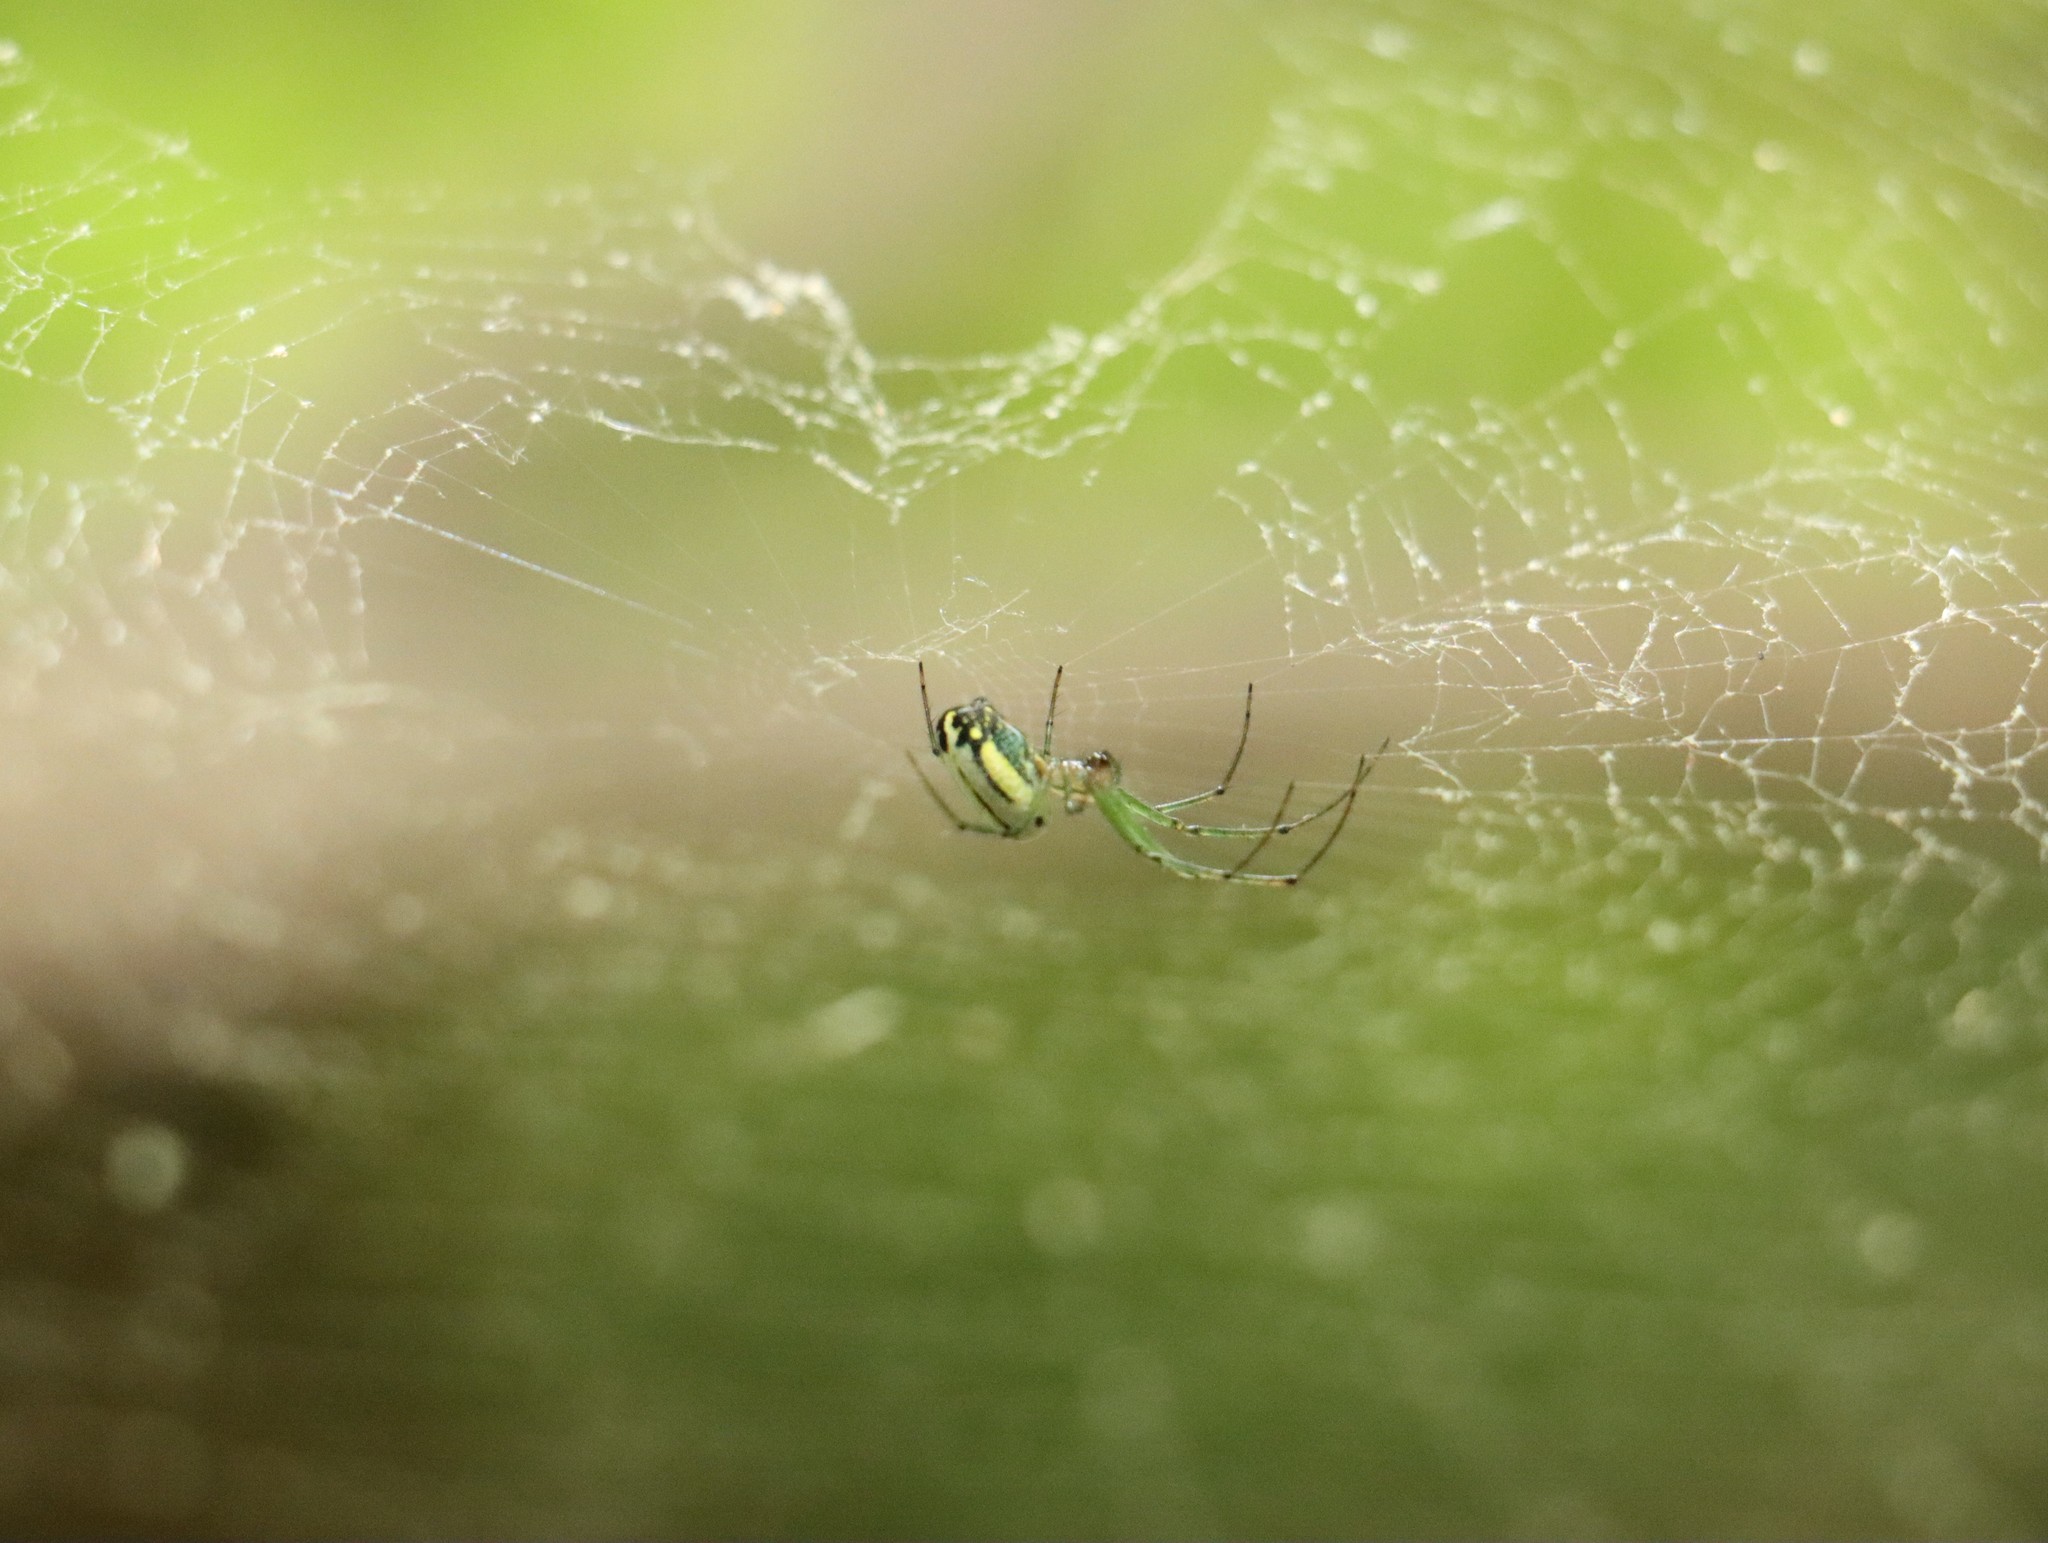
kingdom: Animalia
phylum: Arthropoda
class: Arachnida
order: Araneae
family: Tetragnathidae
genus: Leucauge
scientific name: Leucauge venusta
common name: Longjawed orb weavers
